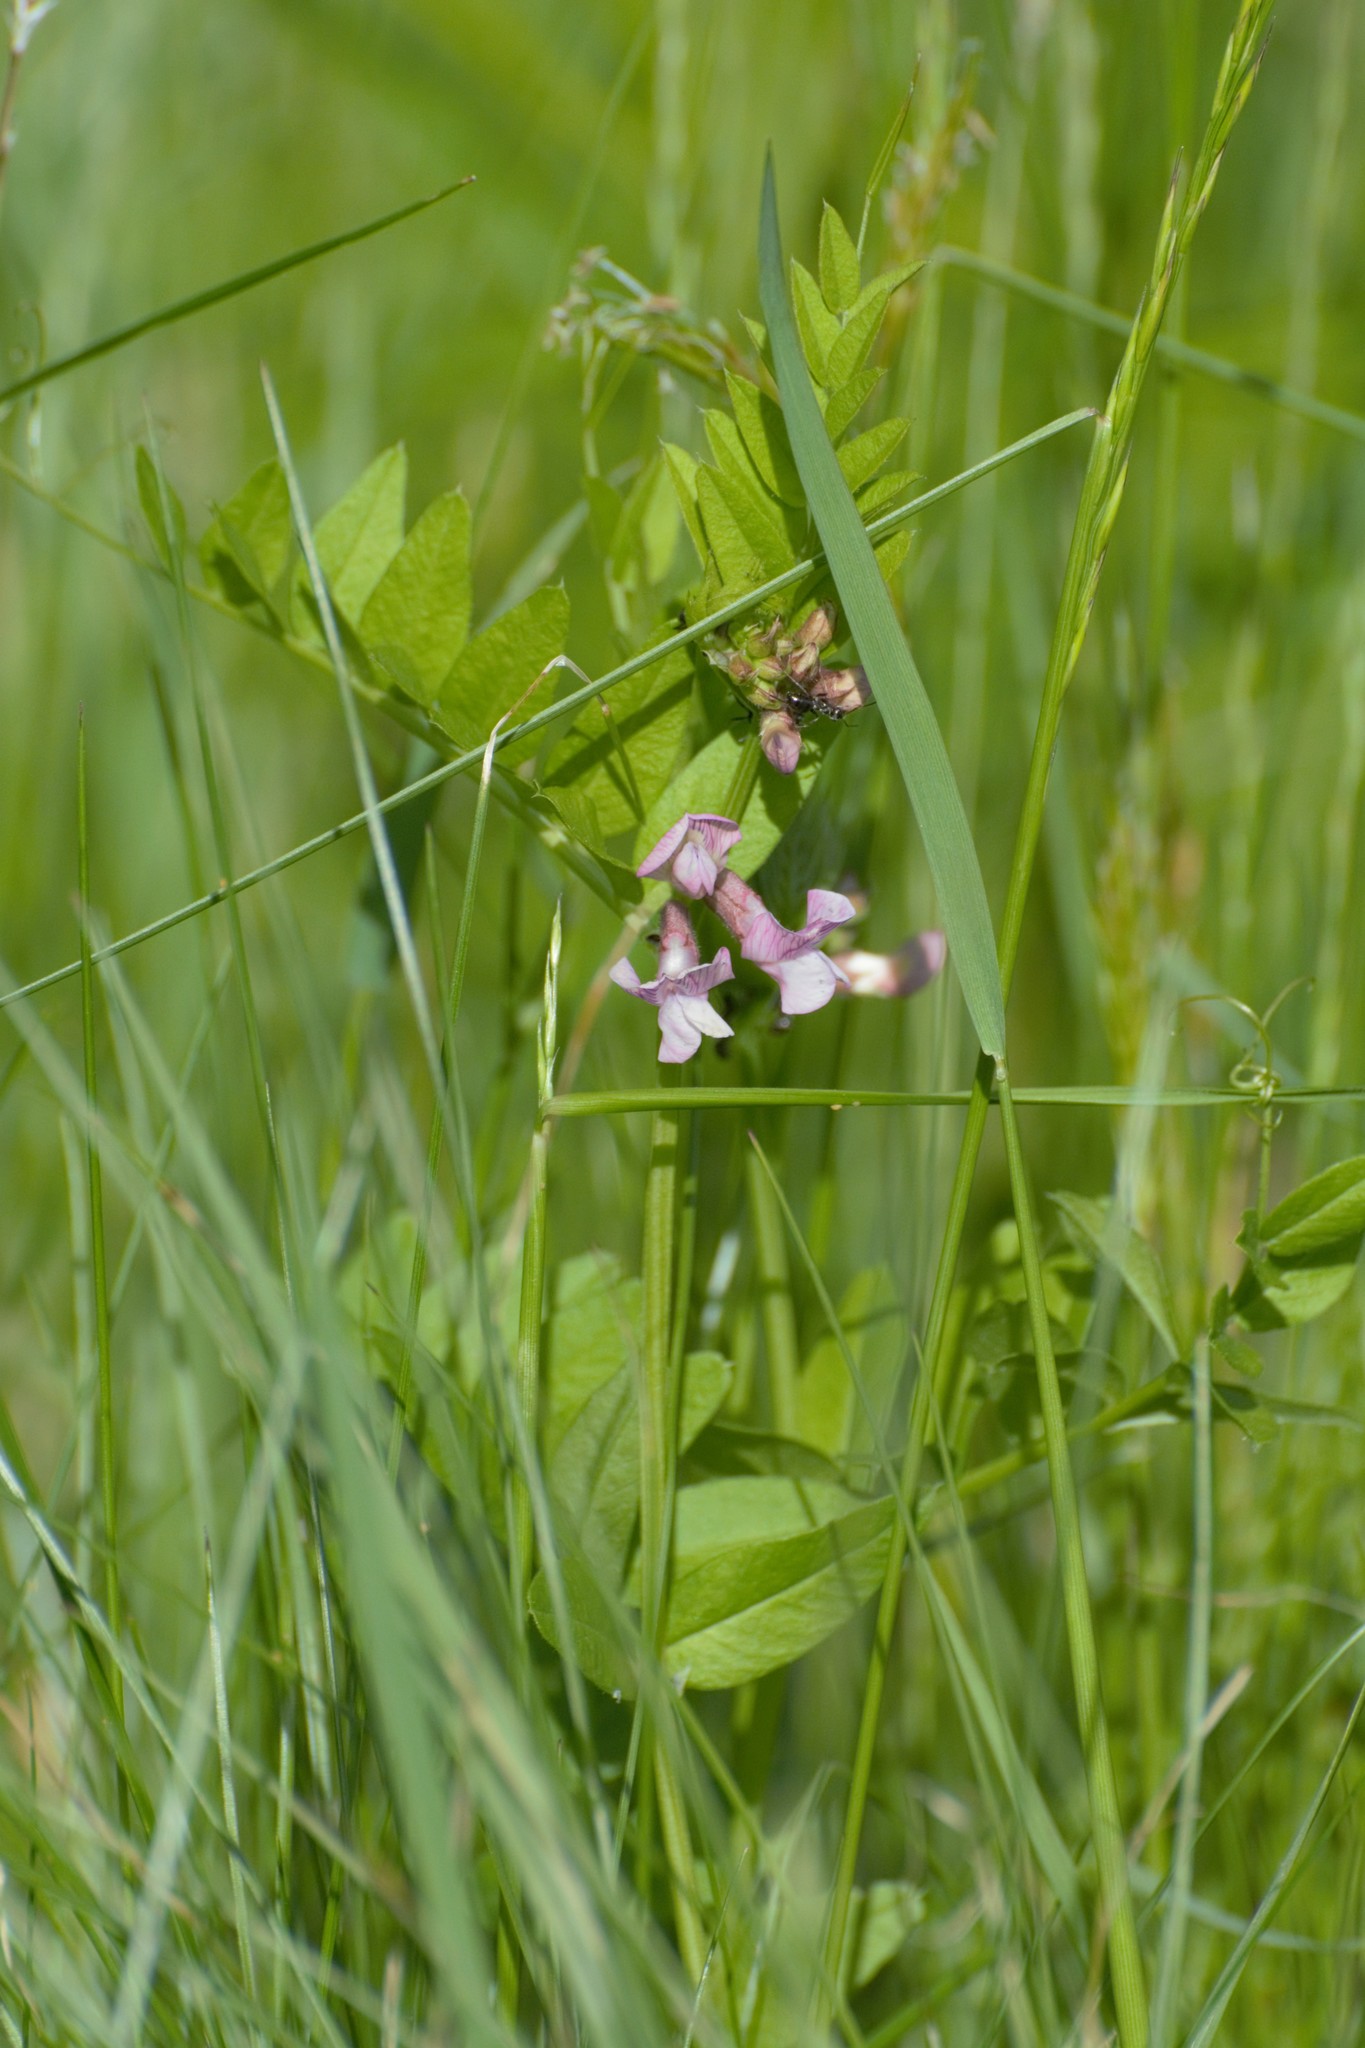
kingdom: Plantae
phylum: Tracheophyta
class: Magnoliopsida
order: Fabales
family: Fabaceae
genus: Vicia
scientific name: Vicia sepium
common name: Bush vetch
